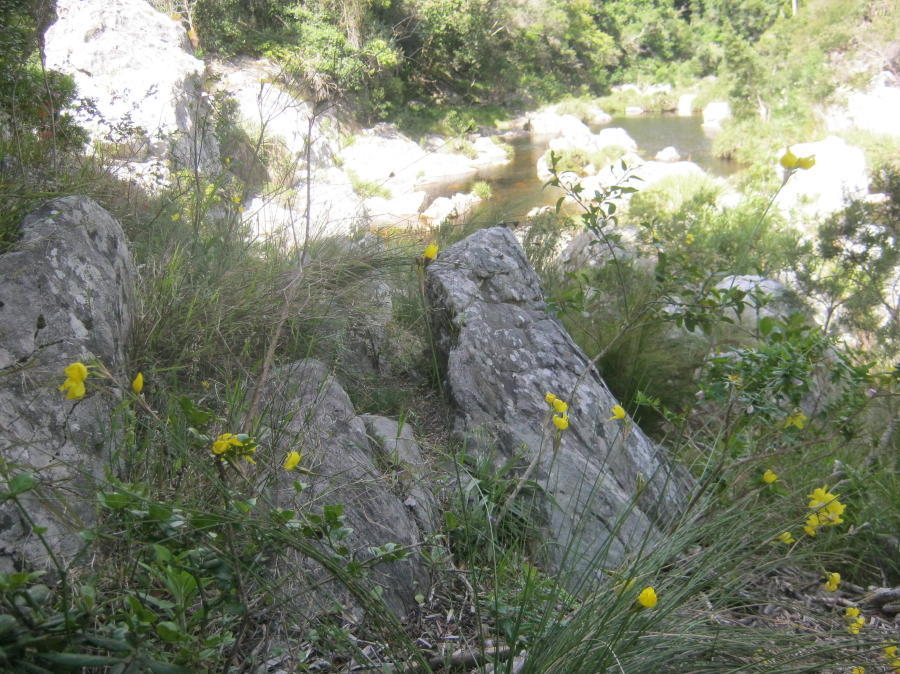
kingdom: Plantae
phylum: Tracheophyta
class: Liliopsida
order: Asparagales
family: Iridaceae
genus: Bobartia
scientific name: Bobartia aphylla
